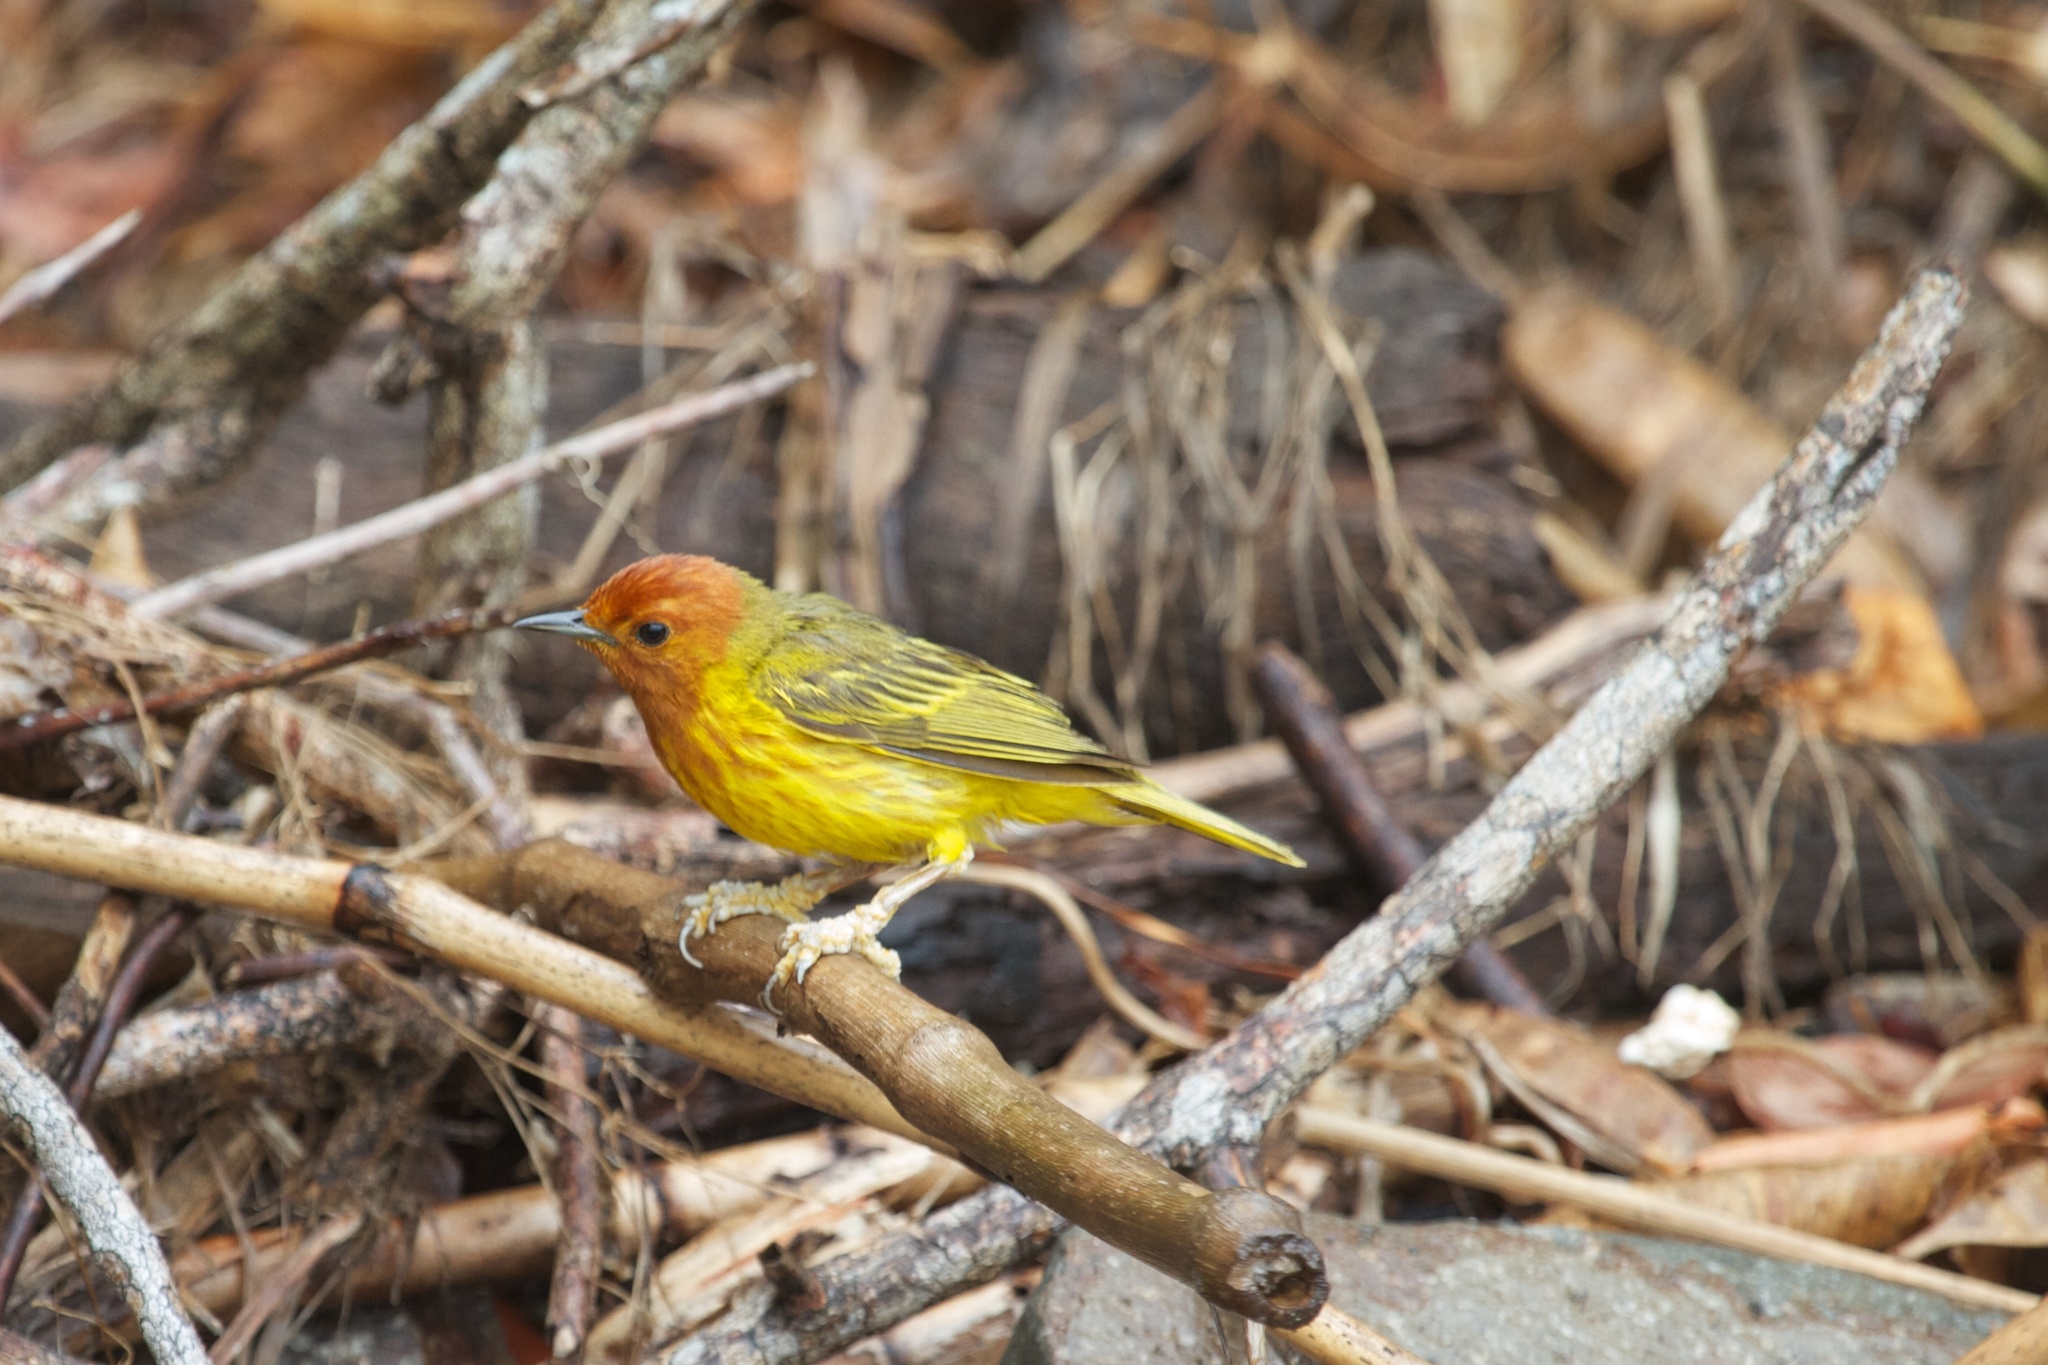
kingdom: Animalia
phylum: Chordata
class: Aves
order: Passeriformes
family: Parulidae
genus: Setophaga
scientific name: Setophaga petechia
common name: Yellow warbler
